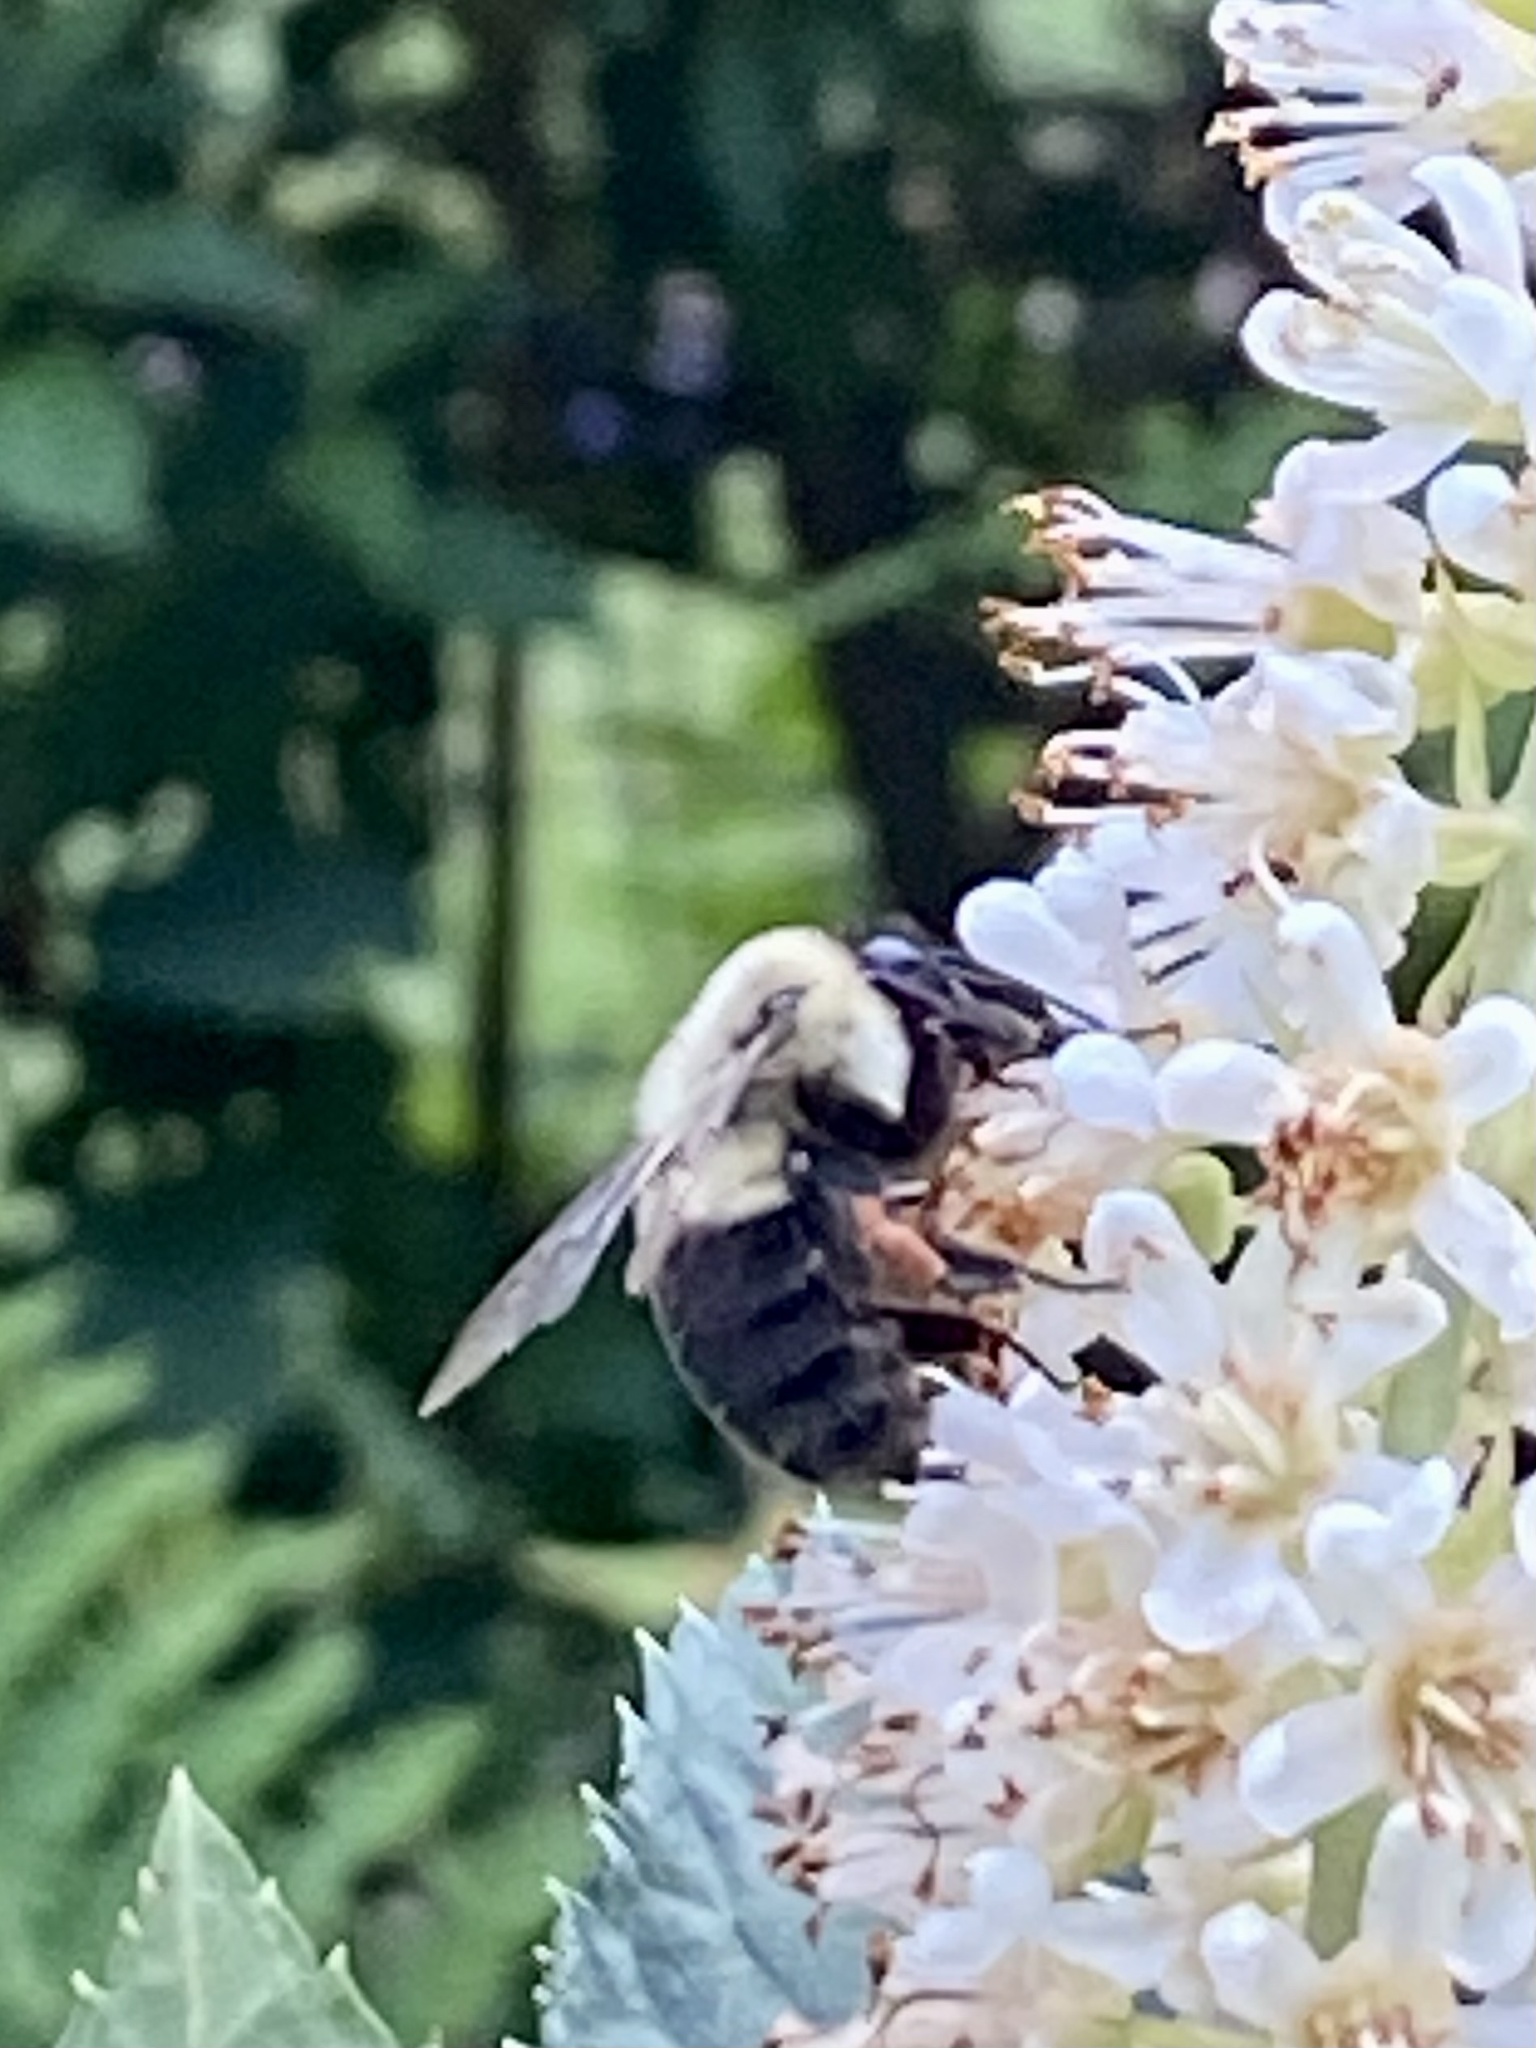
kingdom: Animalia
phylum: Arthropoda
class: Insecta
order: Hymenoptera
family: Apidae
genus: Bombus
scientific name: Bombus impatiens
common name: Common eastern bumble bee
